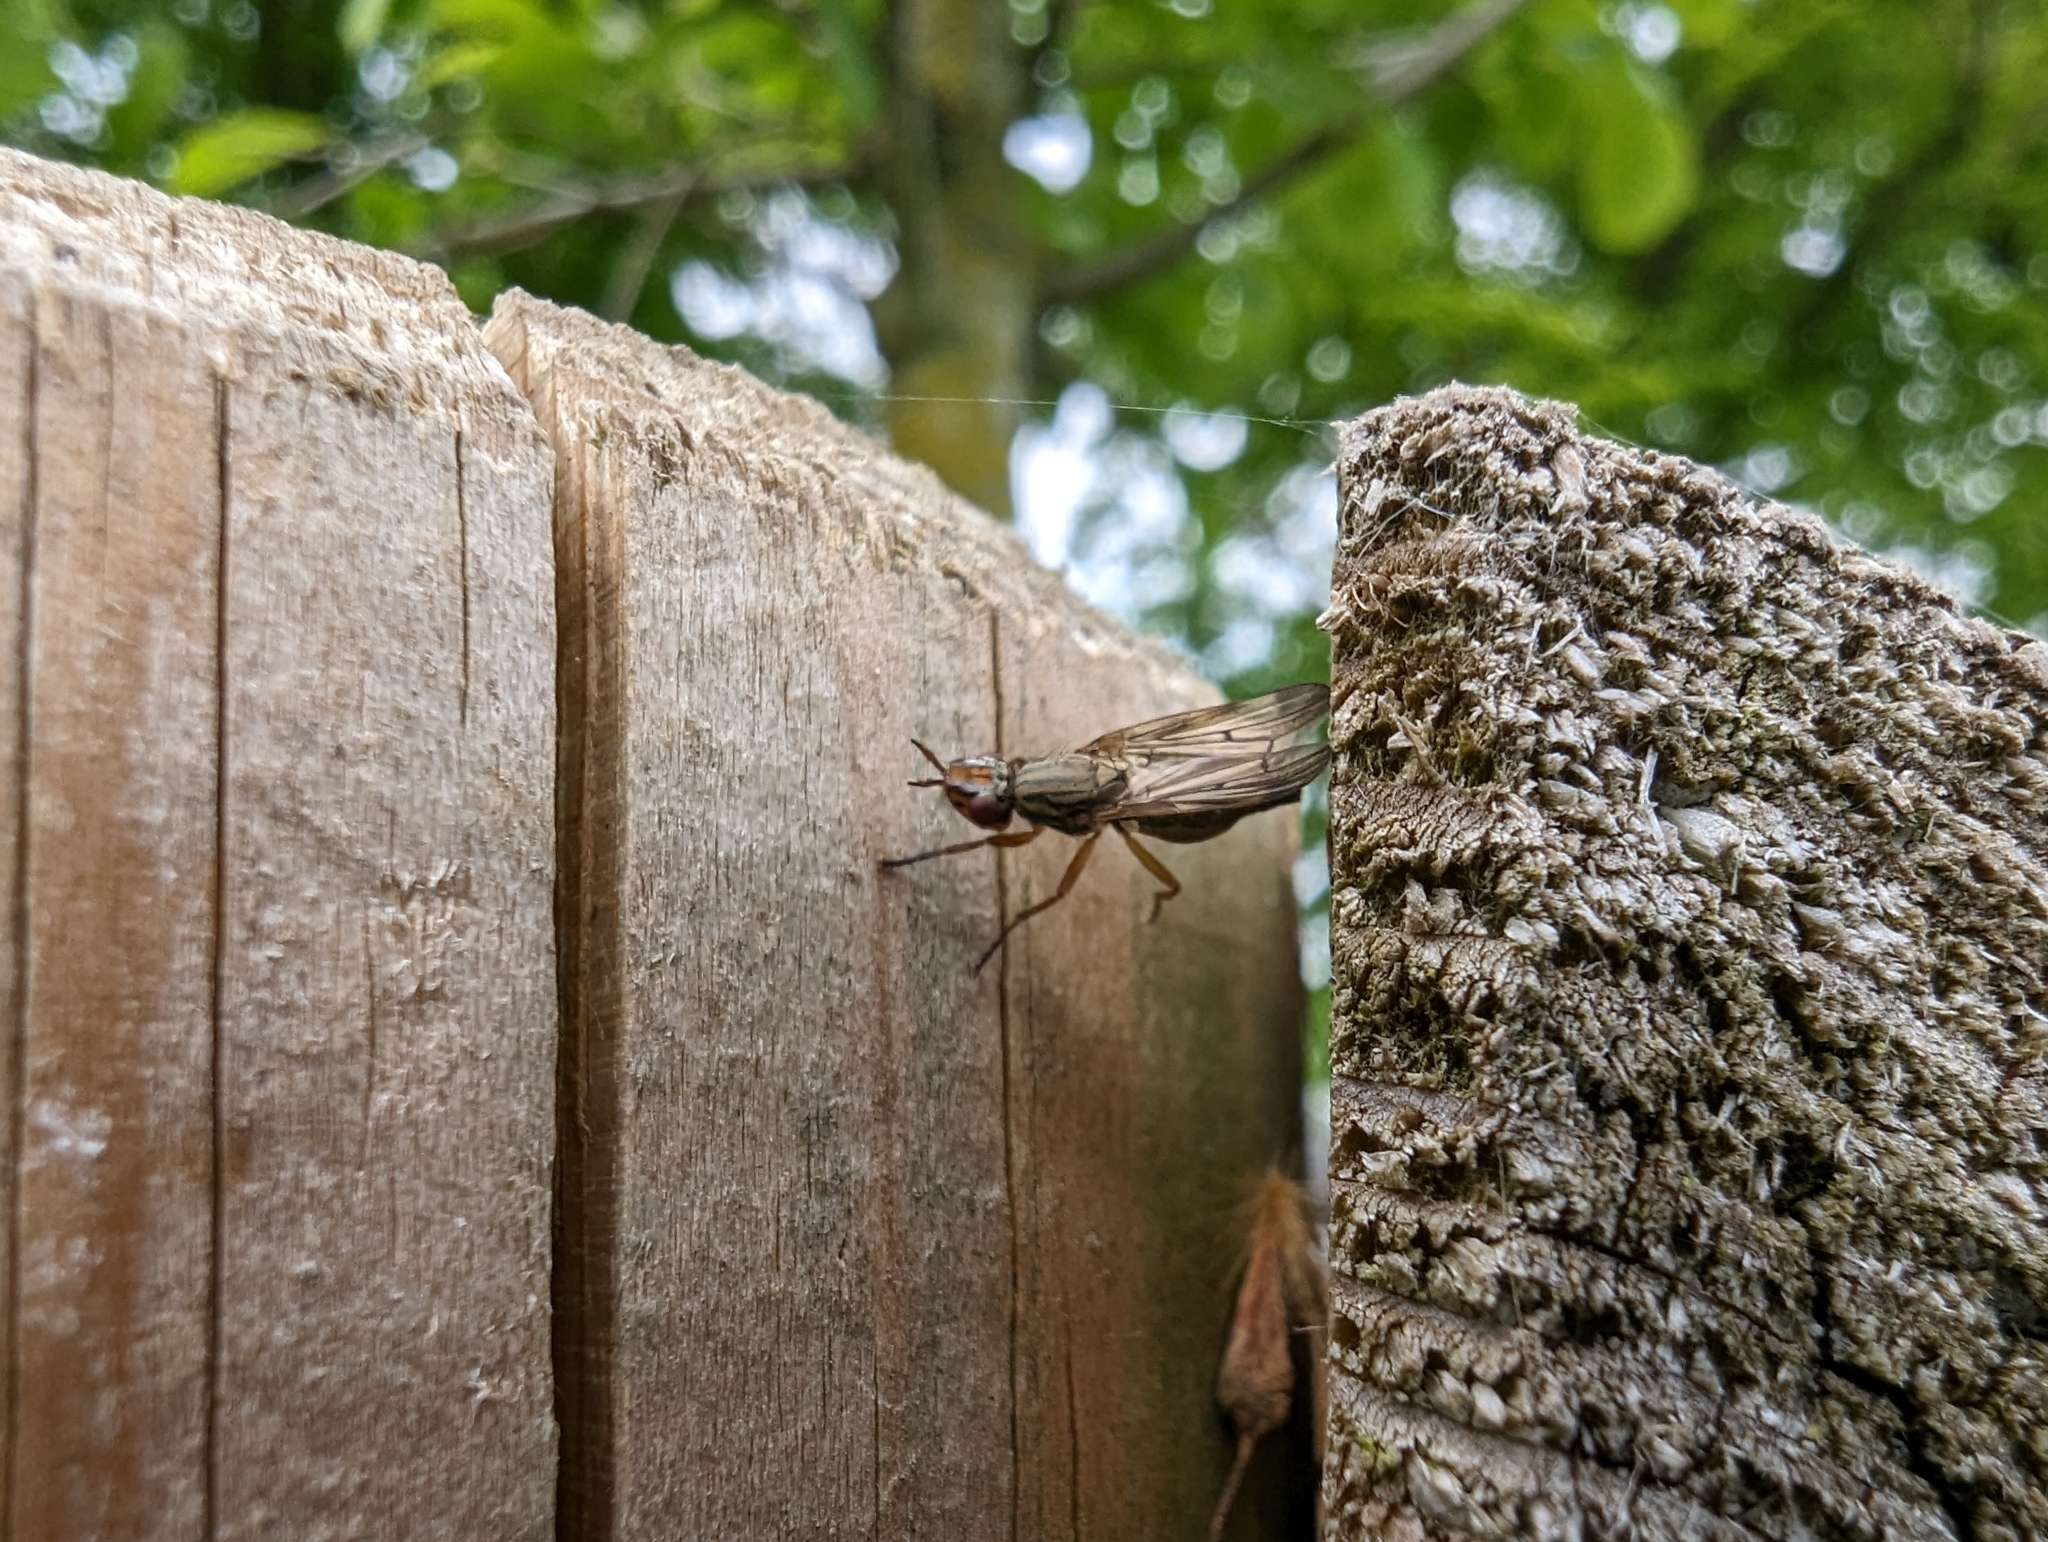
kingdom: Animalia
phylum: Arthropoda
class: Insecta
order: Diptera
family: Ulidiidae
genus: Dorycera
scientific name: Dorycera aquatica
